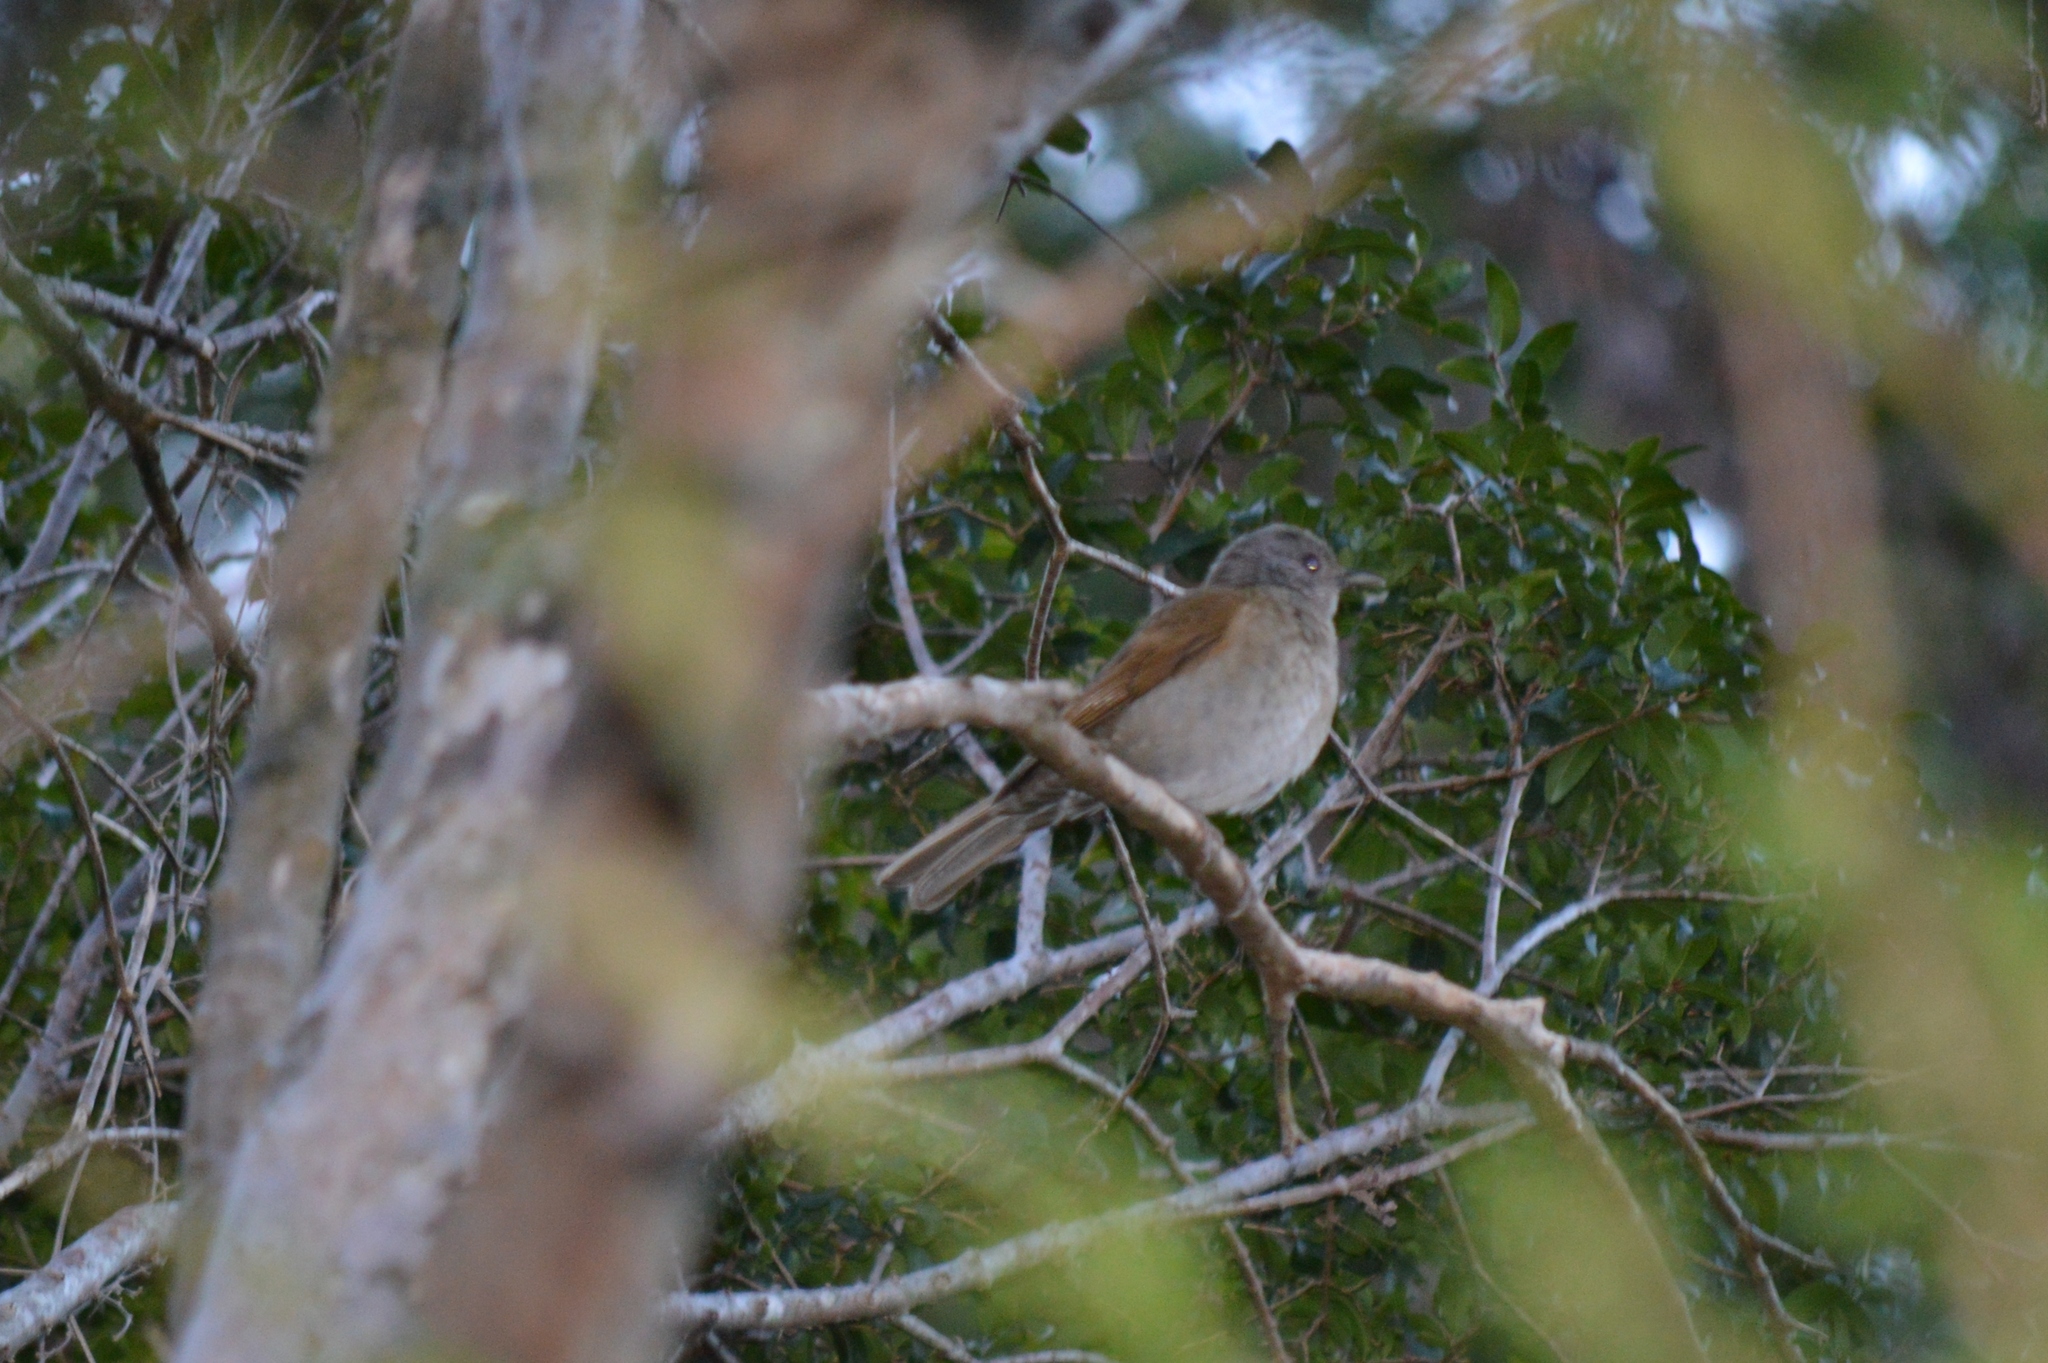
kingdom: Animalia
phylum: Chordata
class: Aves
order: Passeriformes
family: Turdidae
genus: Turdus
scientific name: Turdus leucomelas
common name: Pale-breasted thrush
